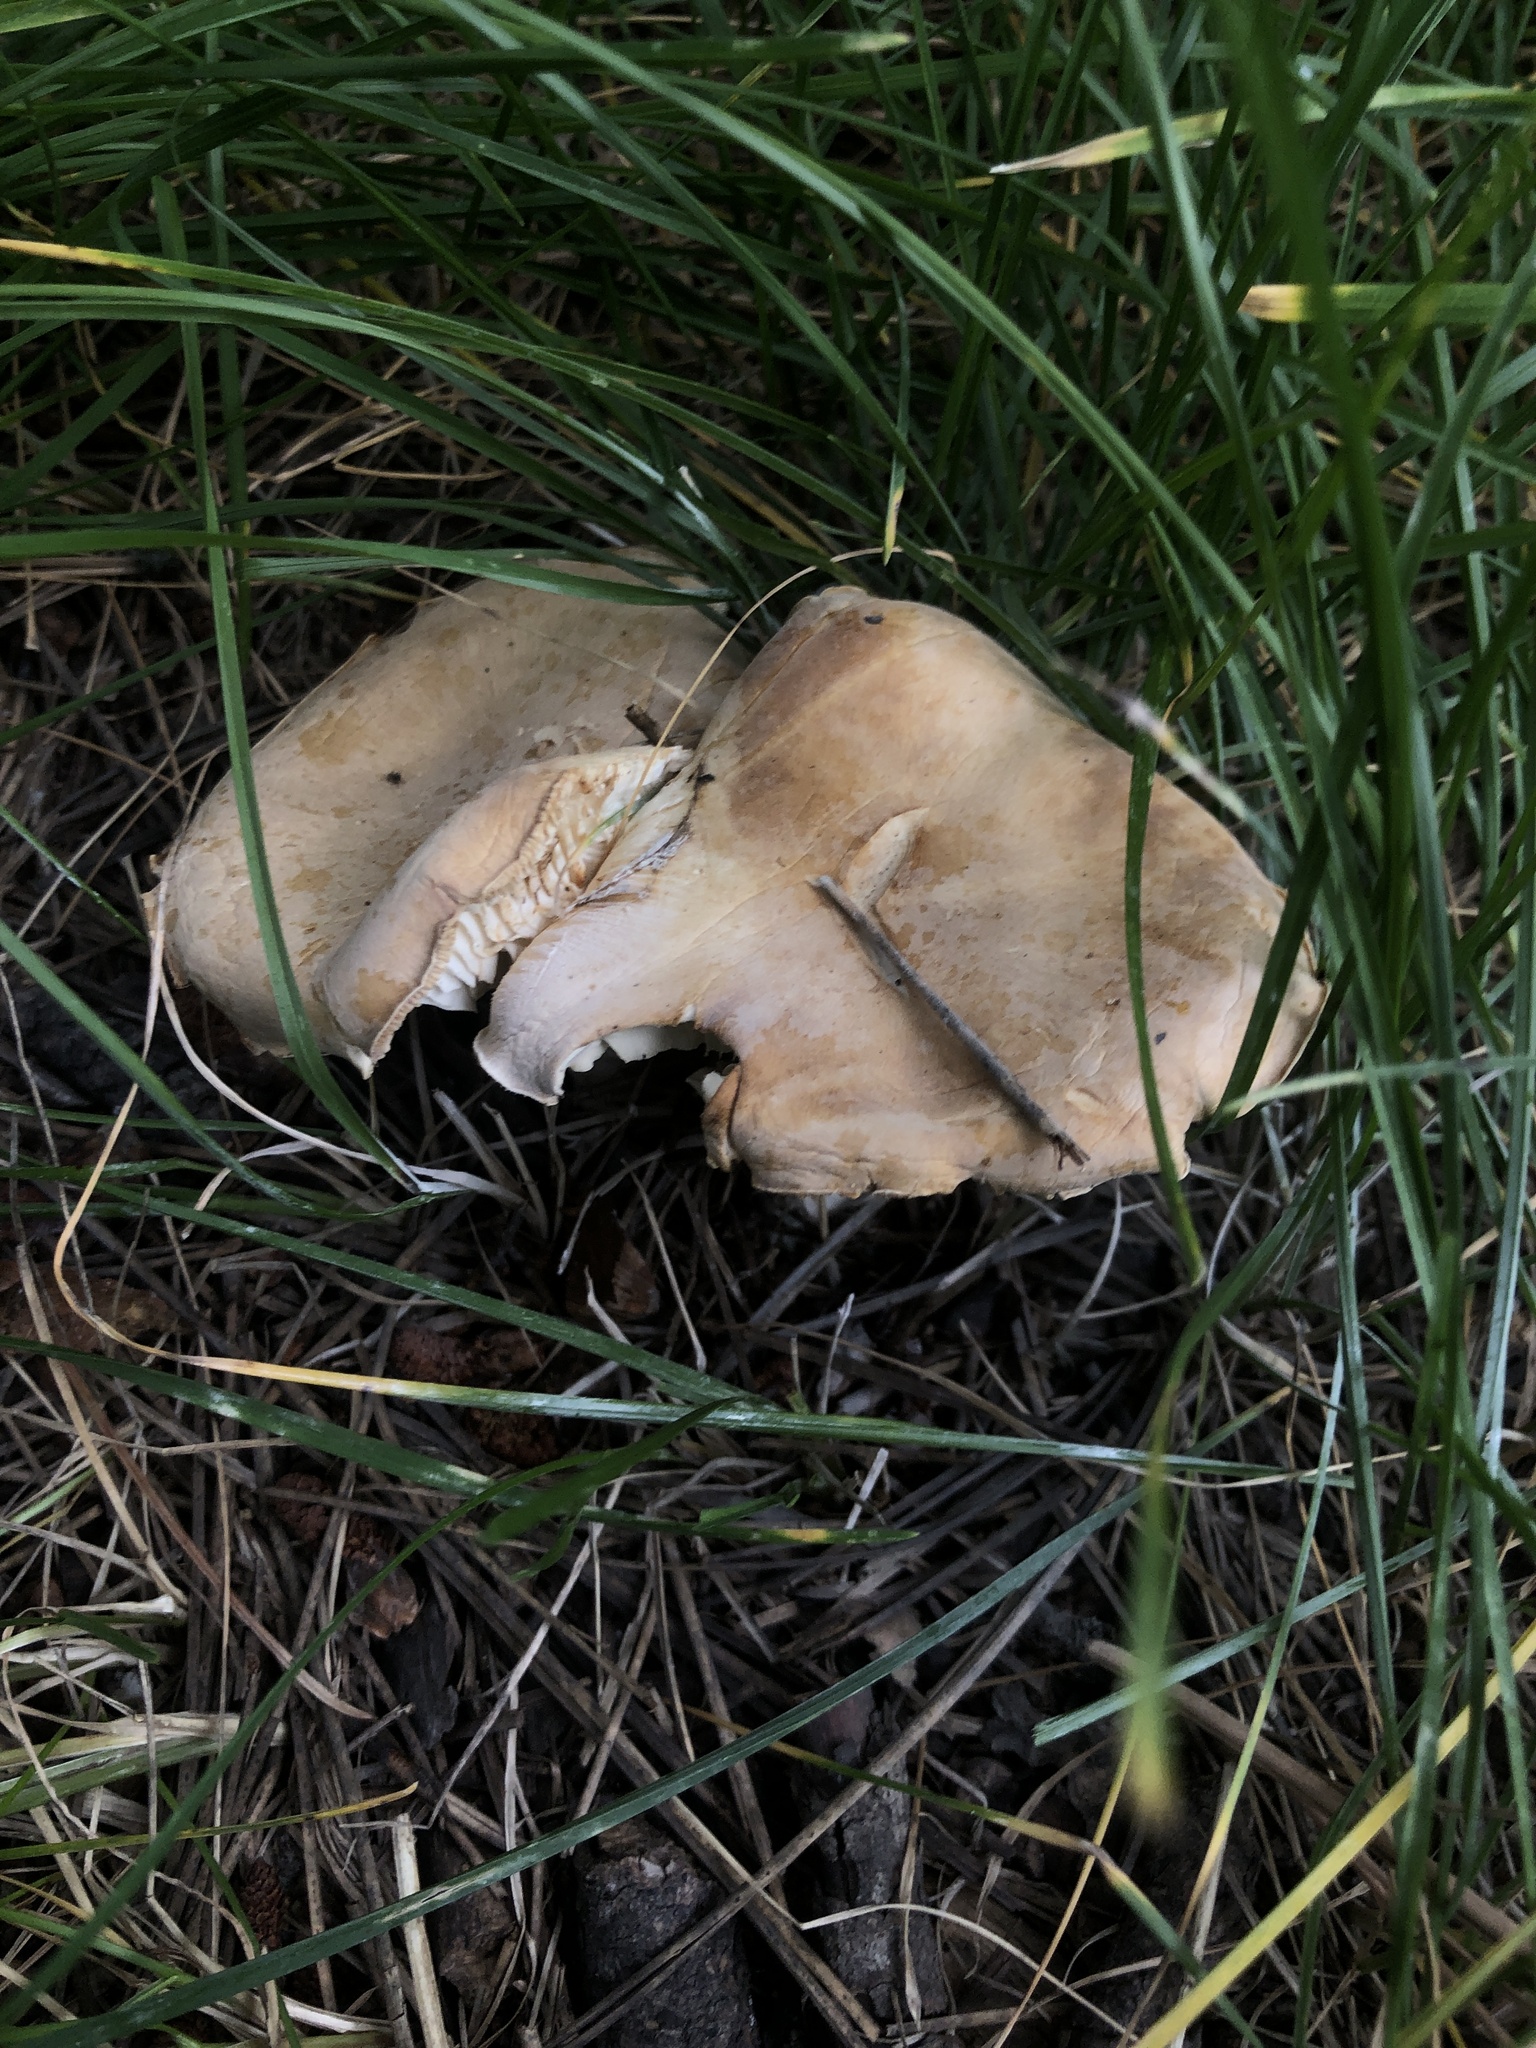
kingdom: Fungi
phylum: Basidiomycota
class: Agaricomycetes
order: Agaricales
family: Tricholomataceae
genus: Leucopaxillus
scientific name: Leucopaxillus gentianeus
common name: Bitter funnel
